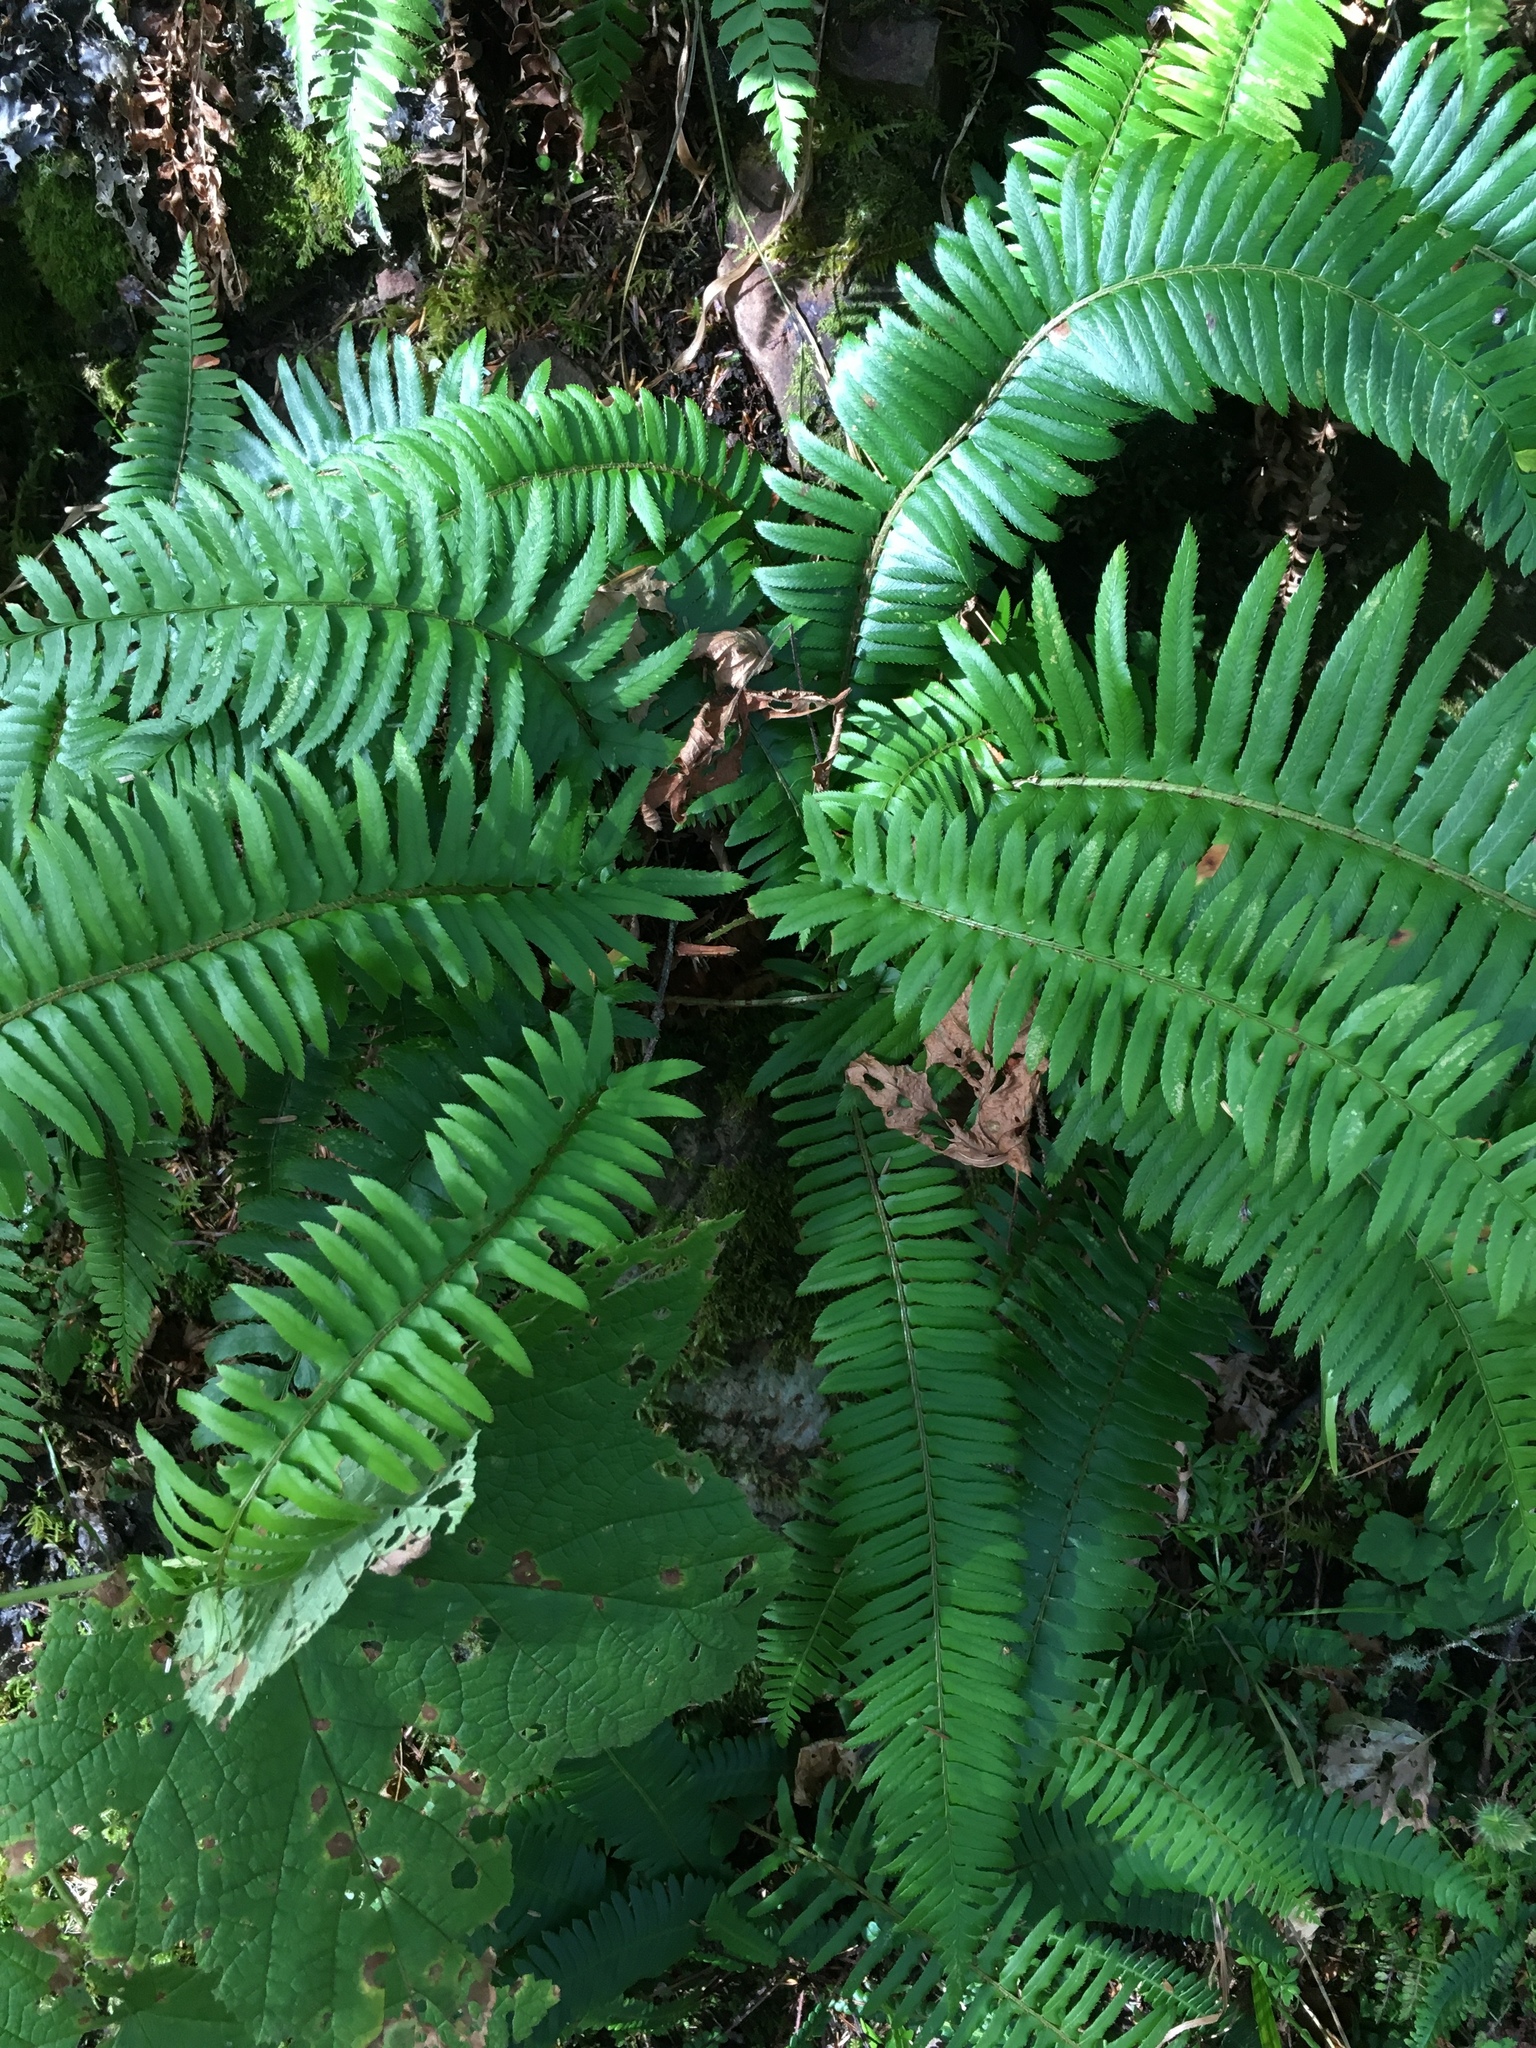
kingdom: Plantae
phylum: Tracheophyta
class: Polypodiopsida
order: Polypodiales
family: Dryopteridaceae
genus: Polystichum
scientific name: Polystichum munitum
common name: Western sword-fern
